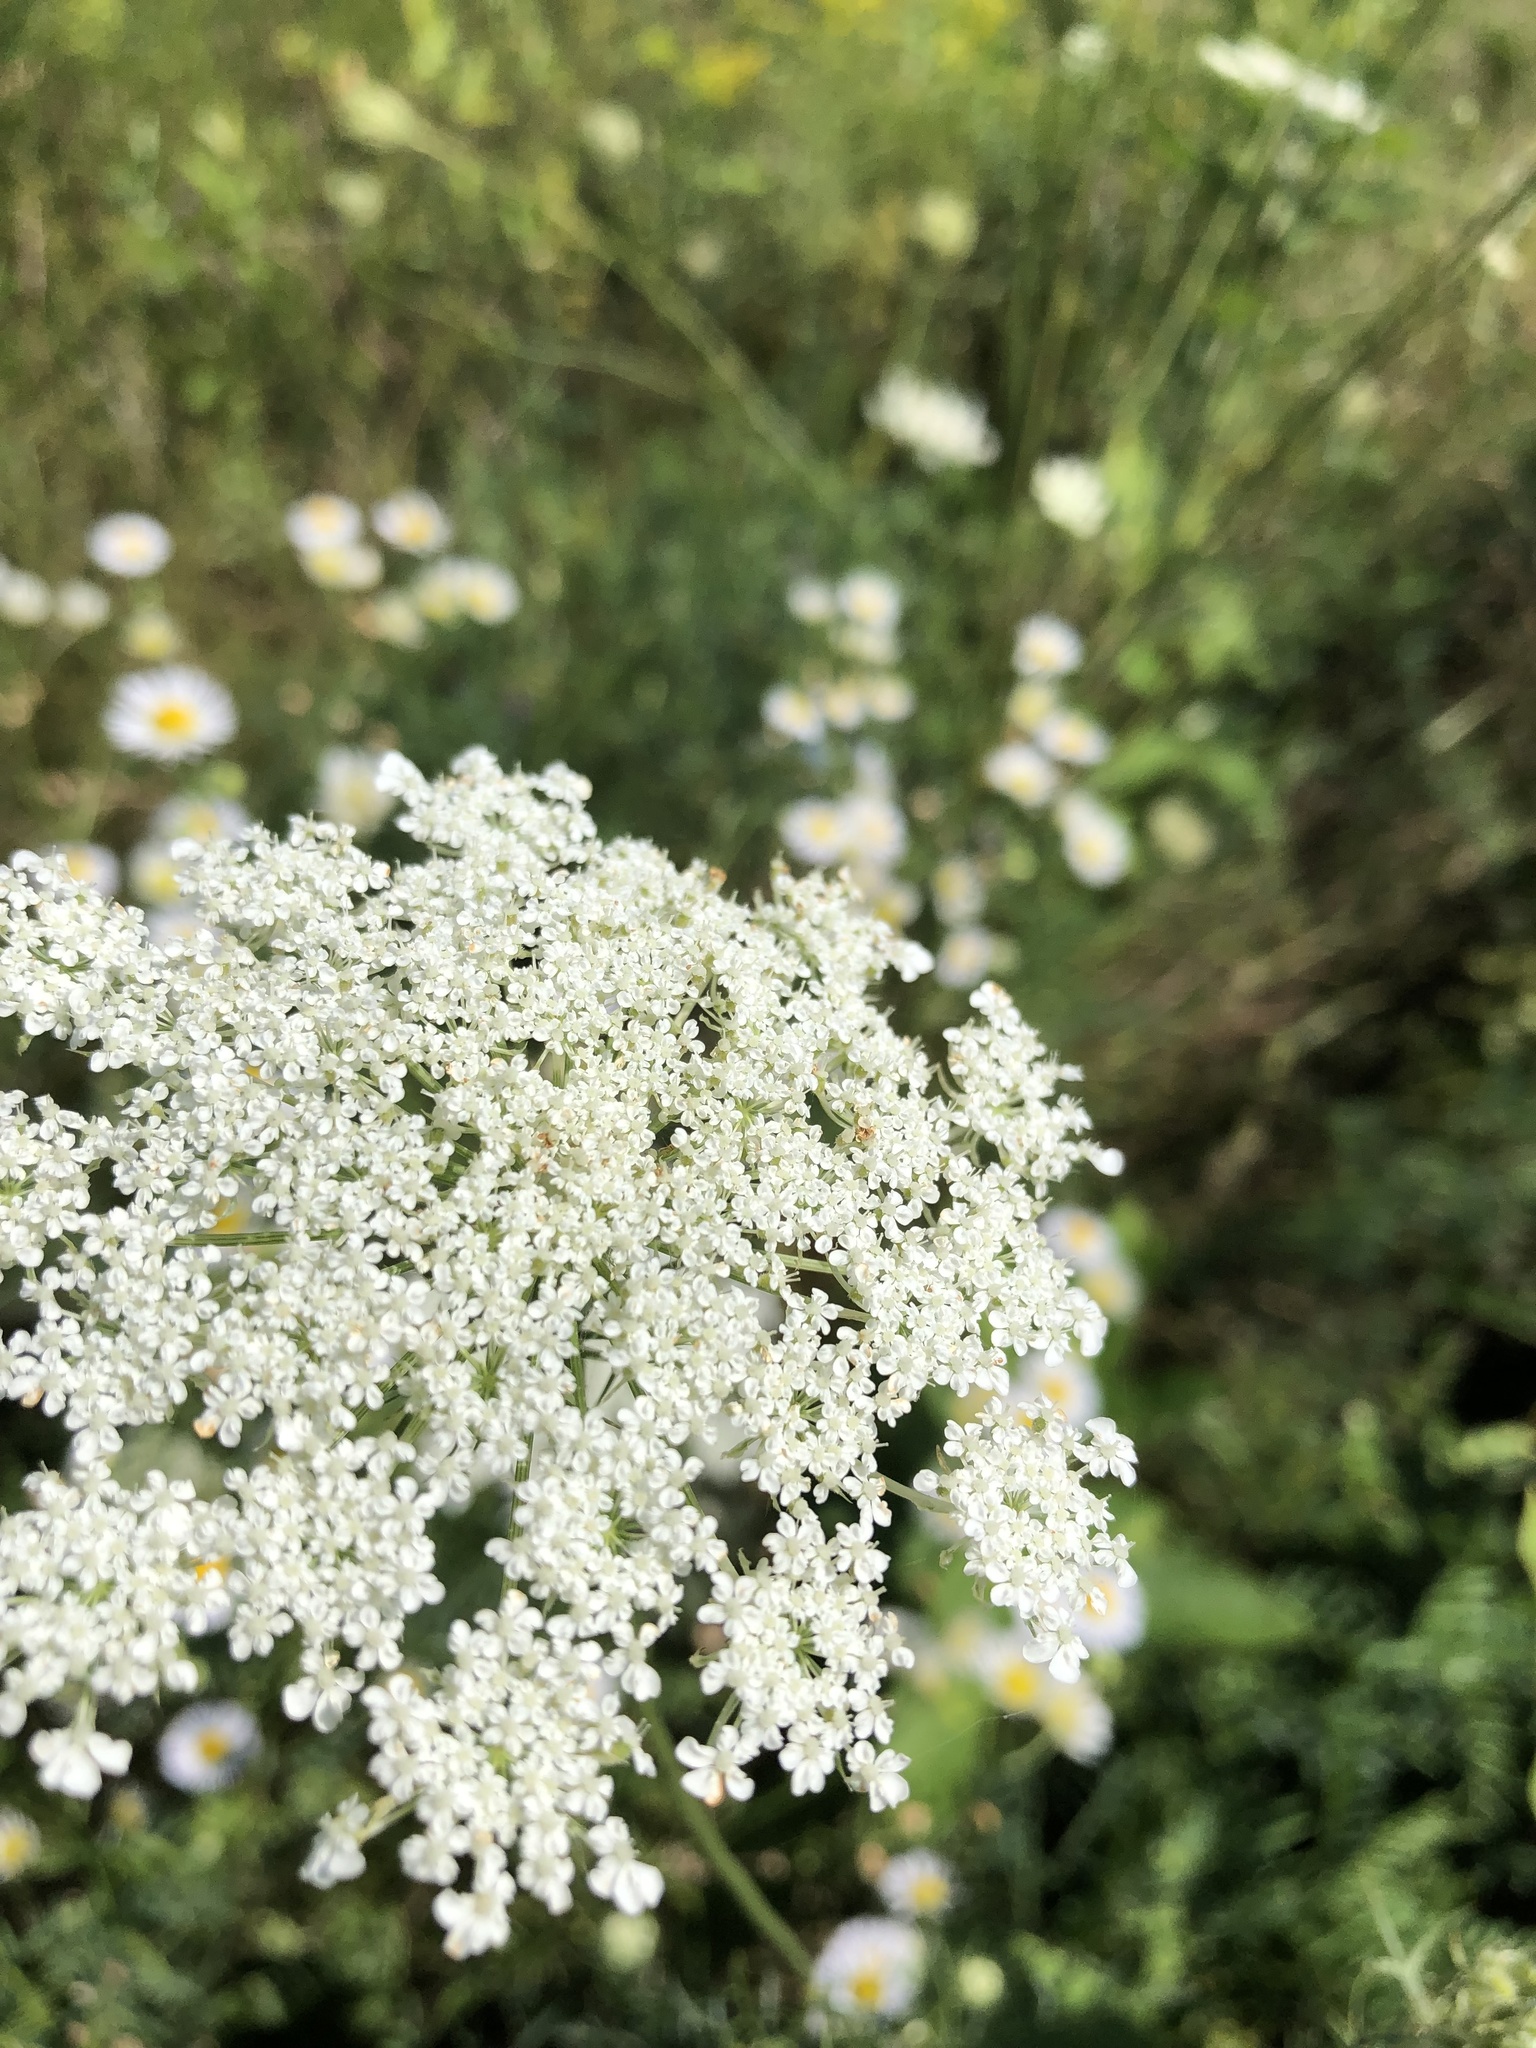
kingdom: Plantae
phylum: Tracheophyta
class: Magnoliopsida
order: Apiales
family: Apiaceae
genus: Daucus
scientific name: Daucus carota
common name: Wild carrot
